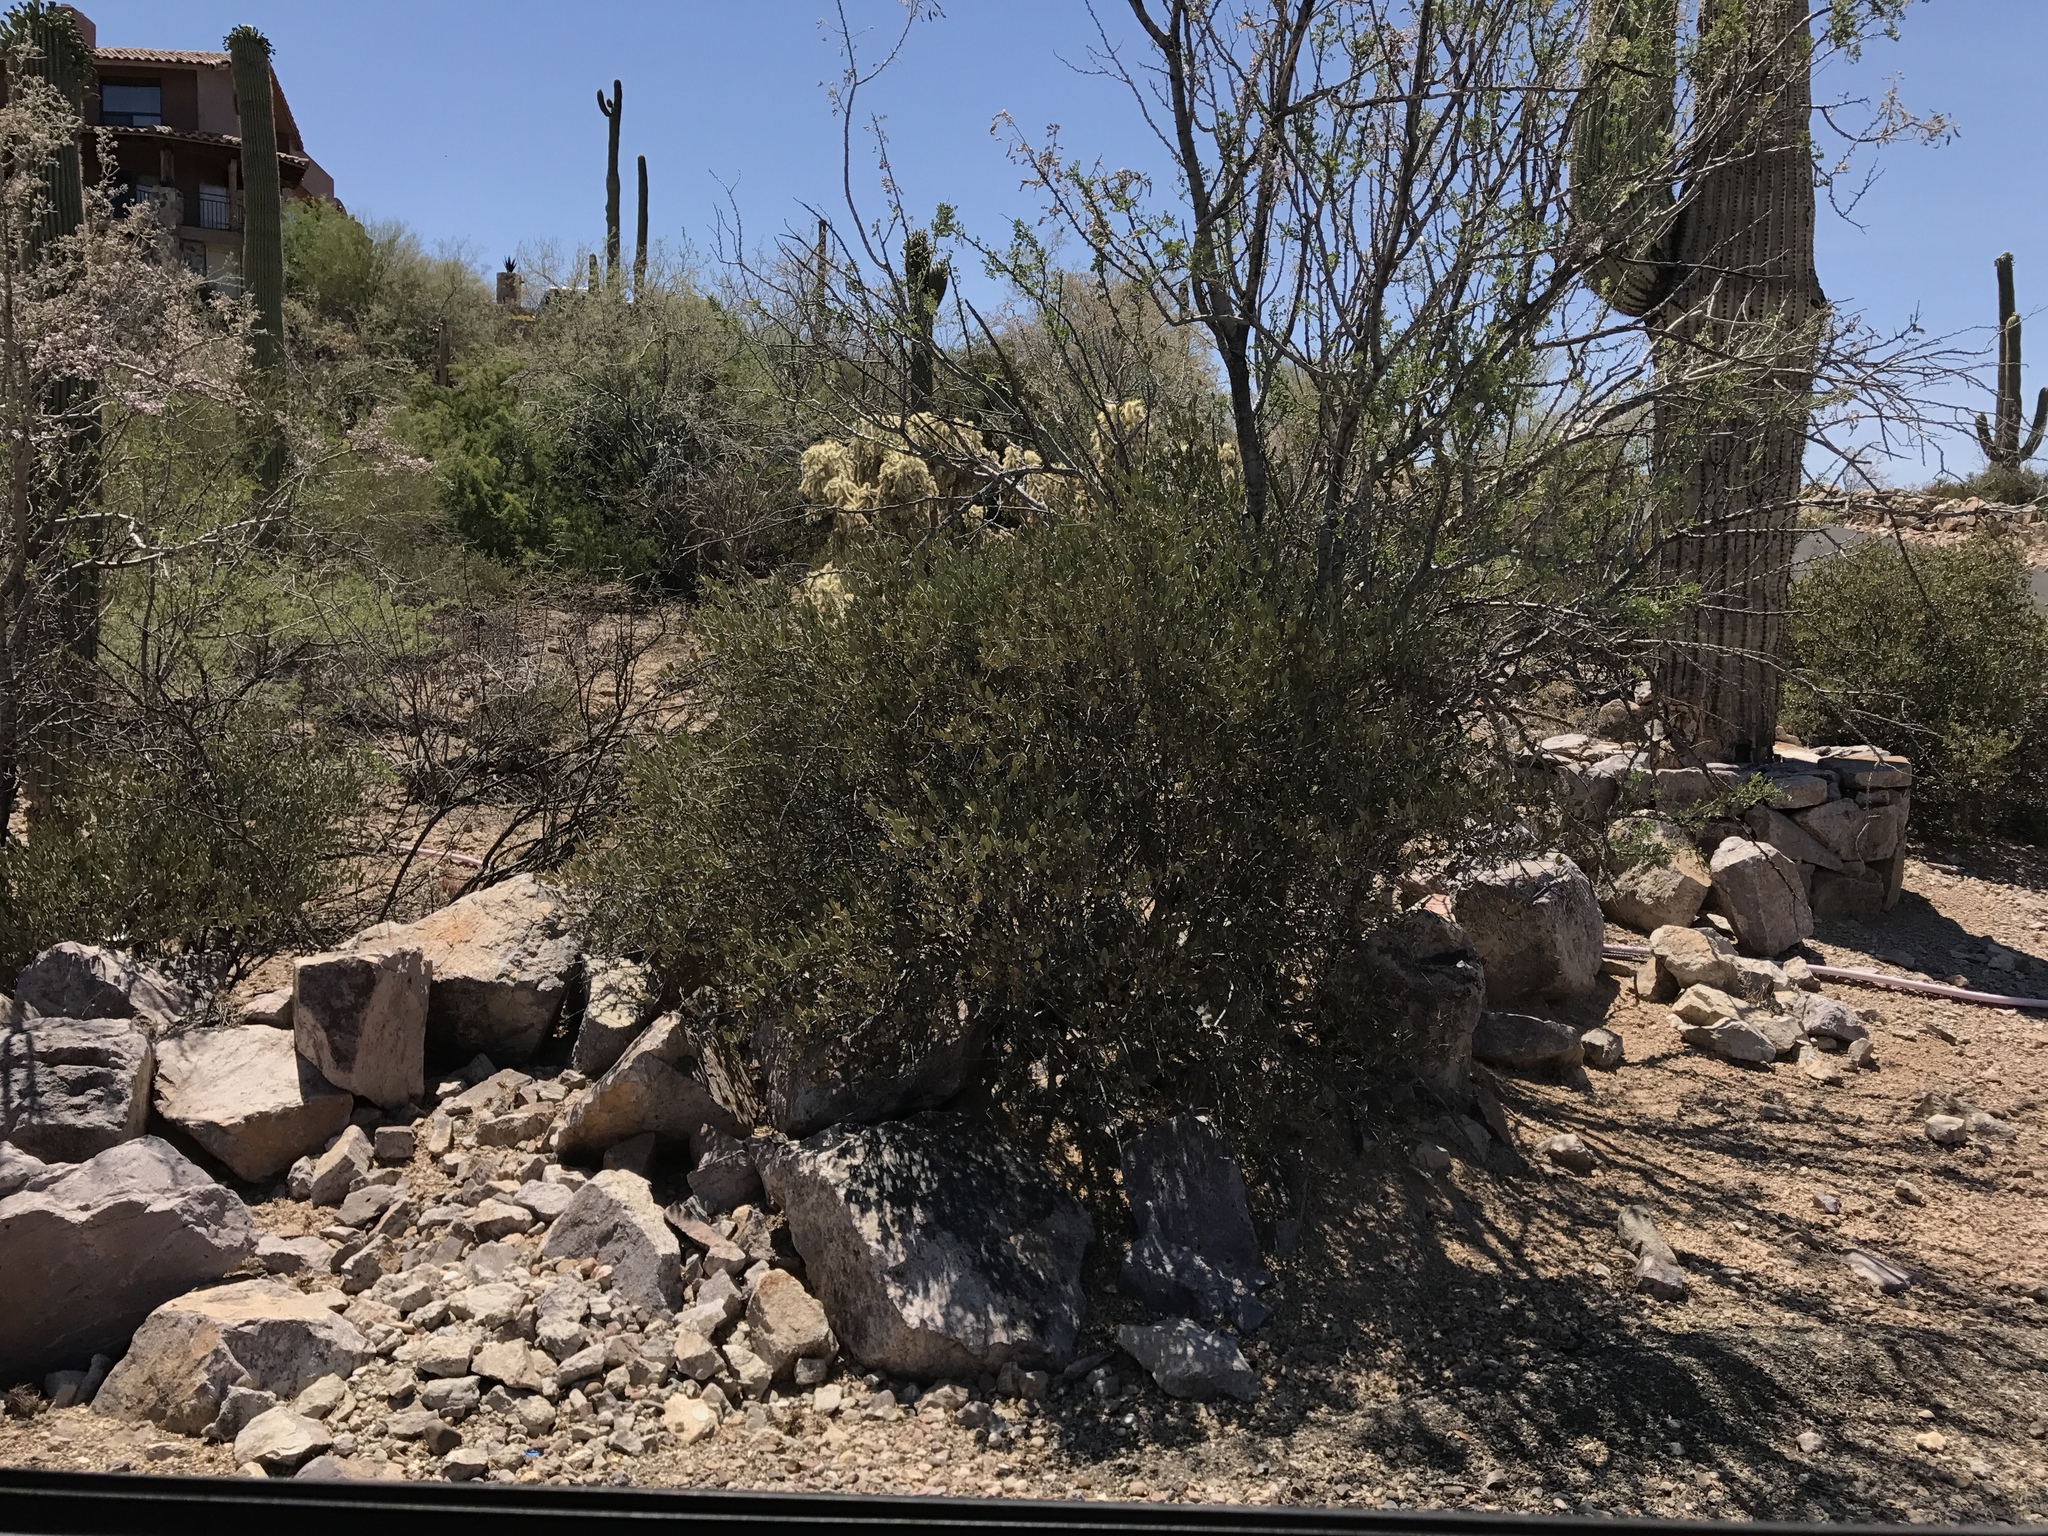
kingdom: Plantae
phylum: Tracheophyta
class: Magnoliopsida
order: Caryophyllales
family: Simmondsiaceae
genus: Simmondsia
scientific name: Simmondsia chinensis
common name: Jojoba
